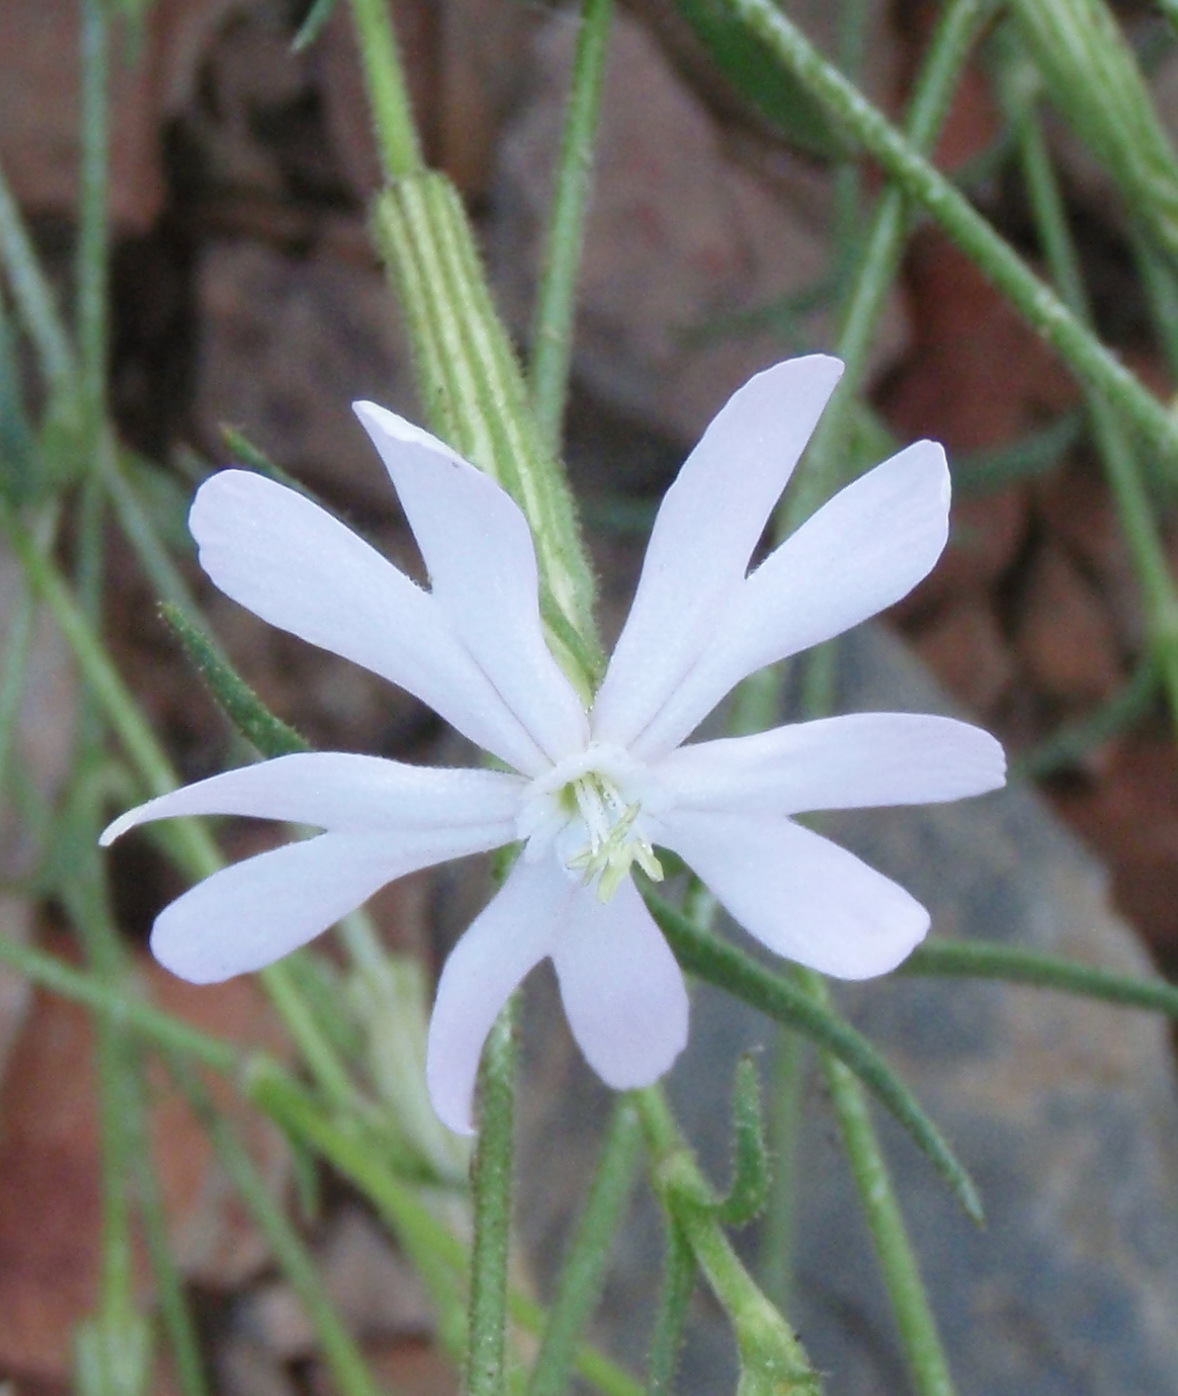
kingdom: Plantae
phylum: Tracheophyta
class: Magnoliopsida
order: Caryophyllales
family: Caryophyllaceae
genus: Silene
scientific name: Silene undulata
